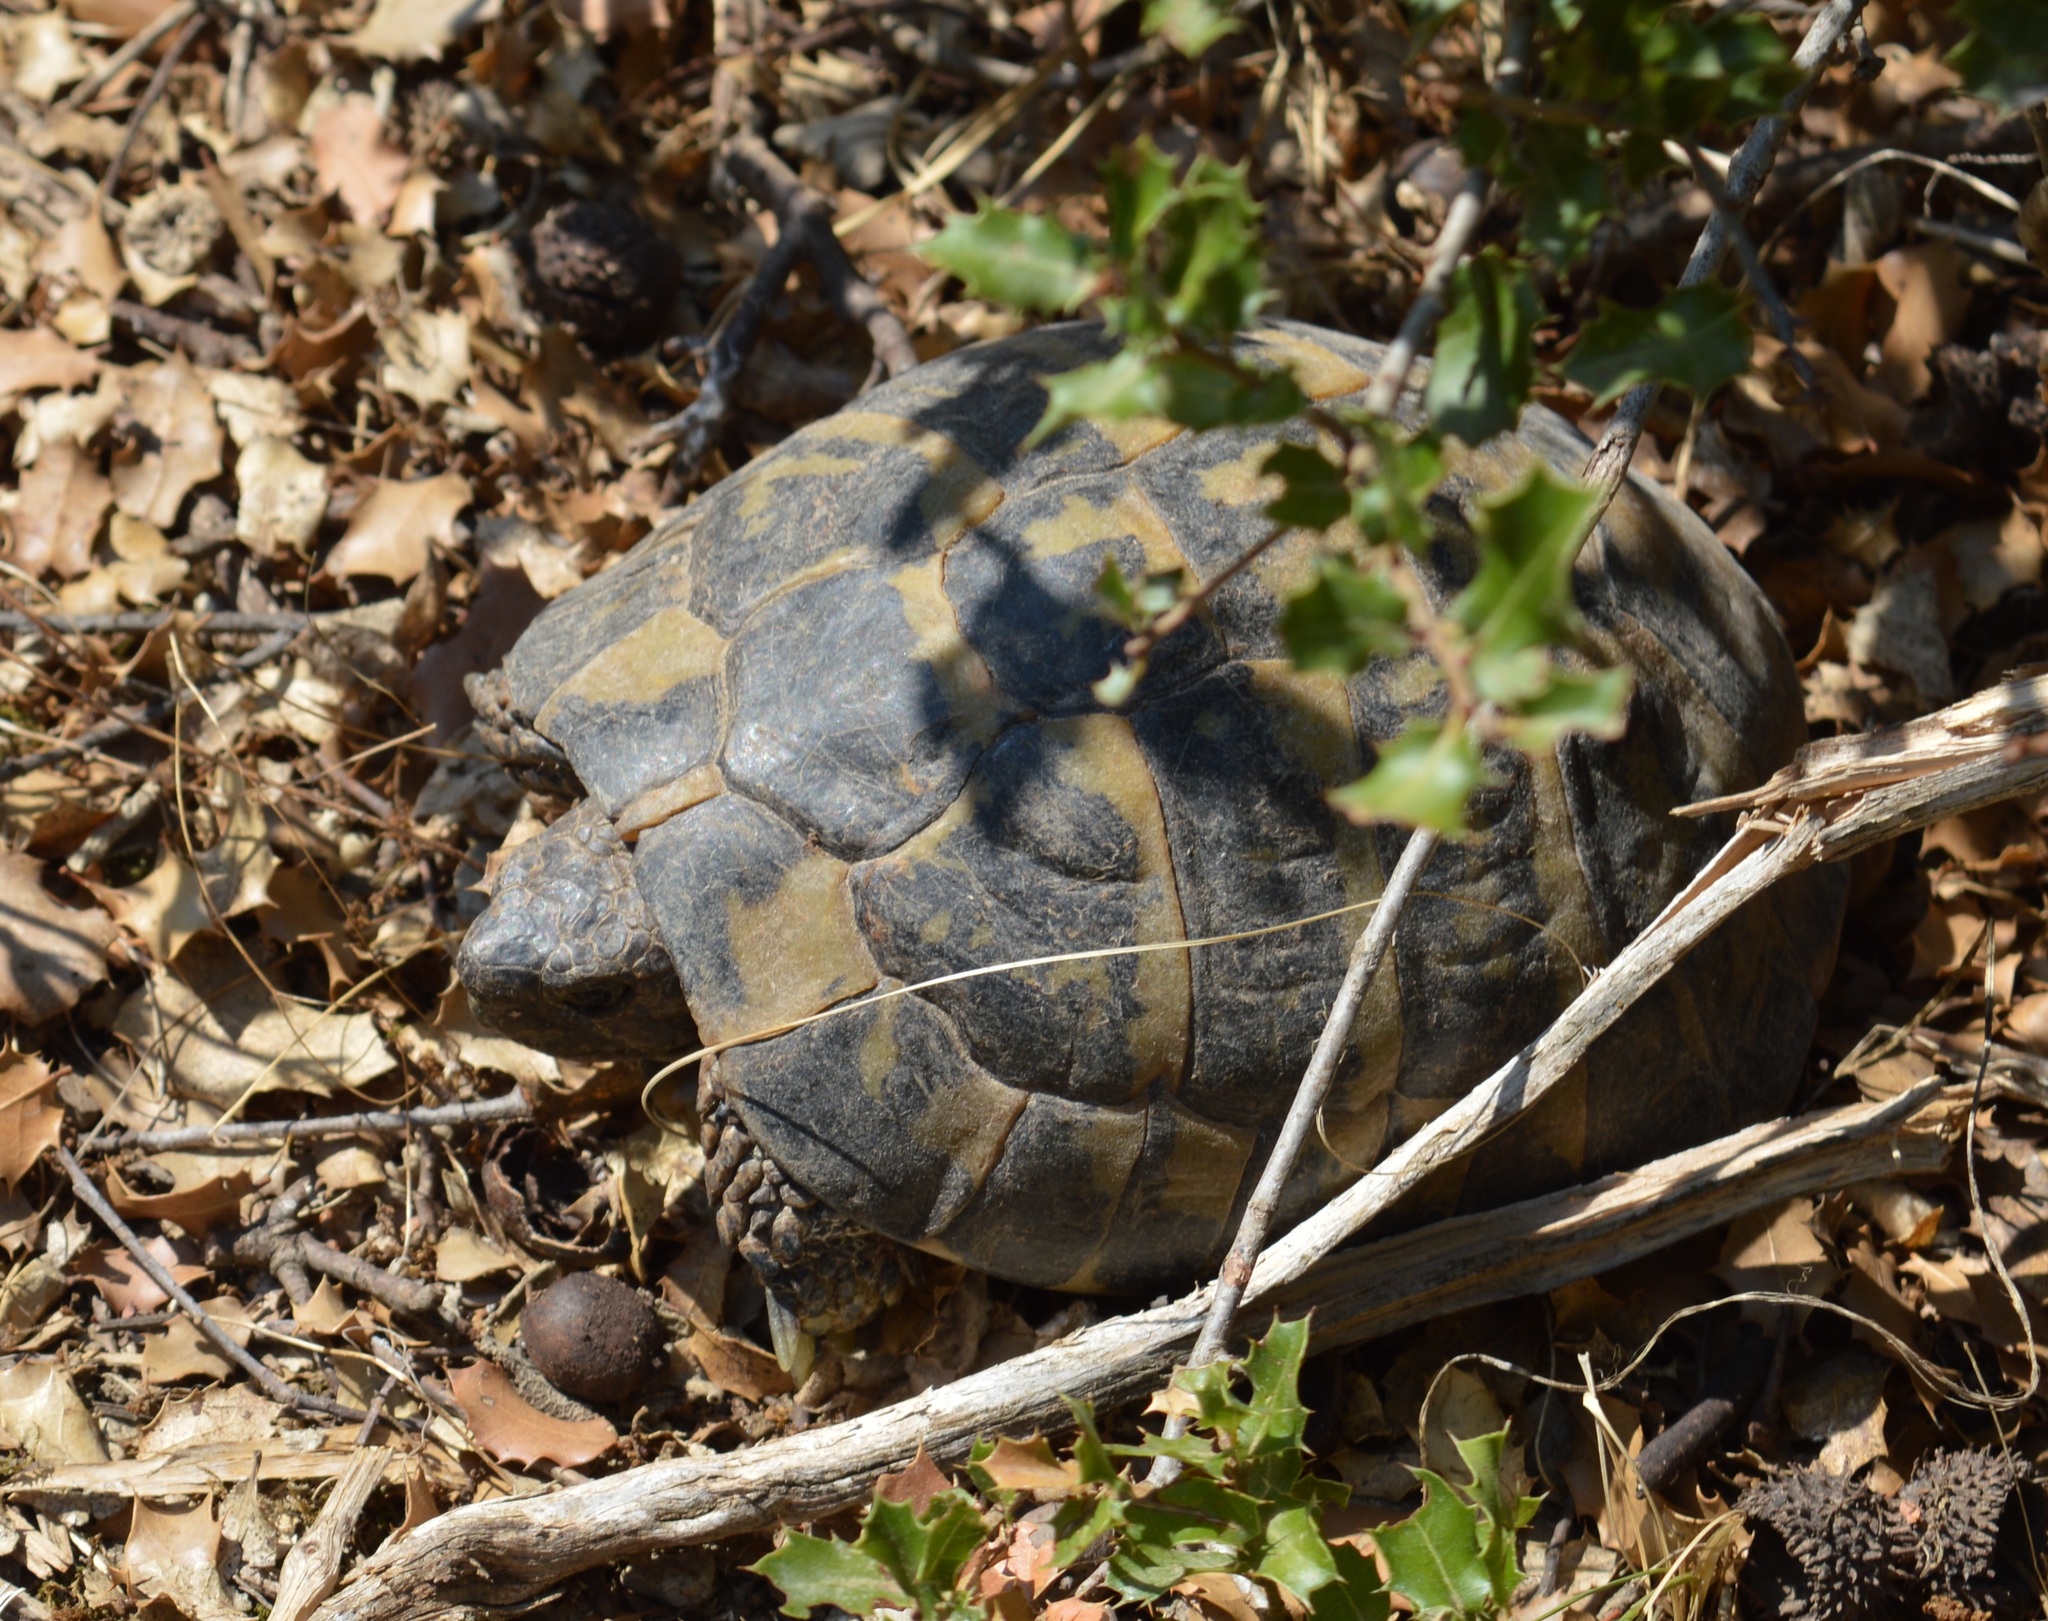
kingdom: Animalia
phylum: Chordata
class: Testudines
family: Testudinidae
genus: Testudo
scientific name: Testudo hermanni
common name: Hermann's tortoise
